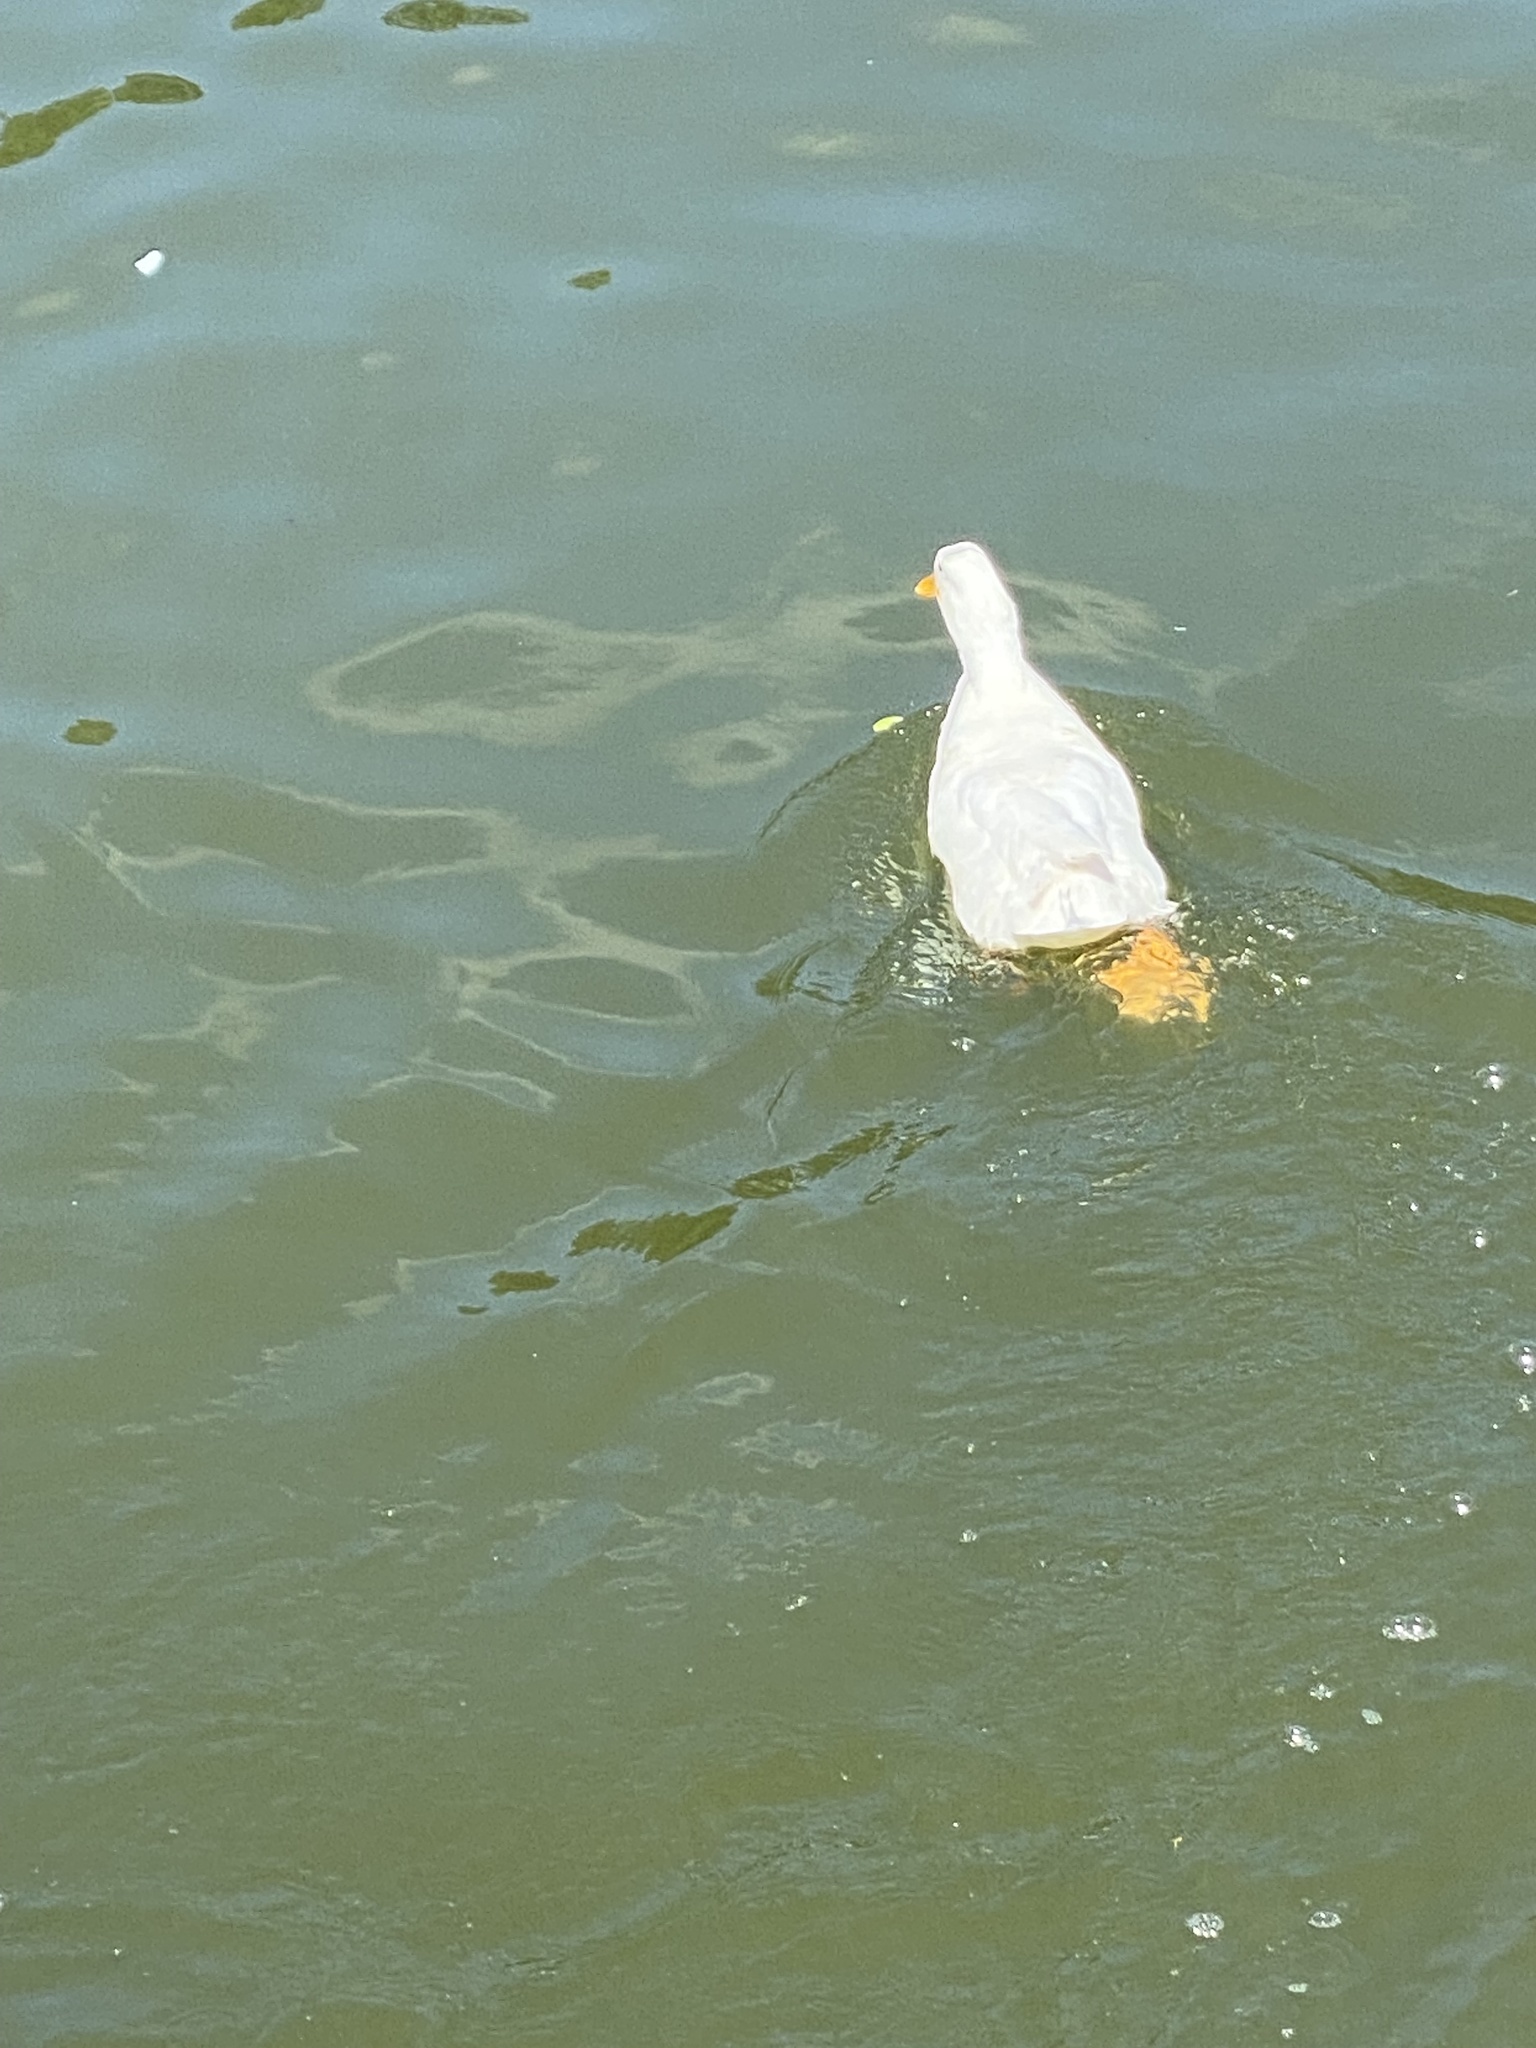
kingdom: Animalia
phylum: Chordata
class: Aves
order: Anseriformes
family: Anatidae
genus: Anas
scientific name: Anas platyrhynchos
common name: Mallard
